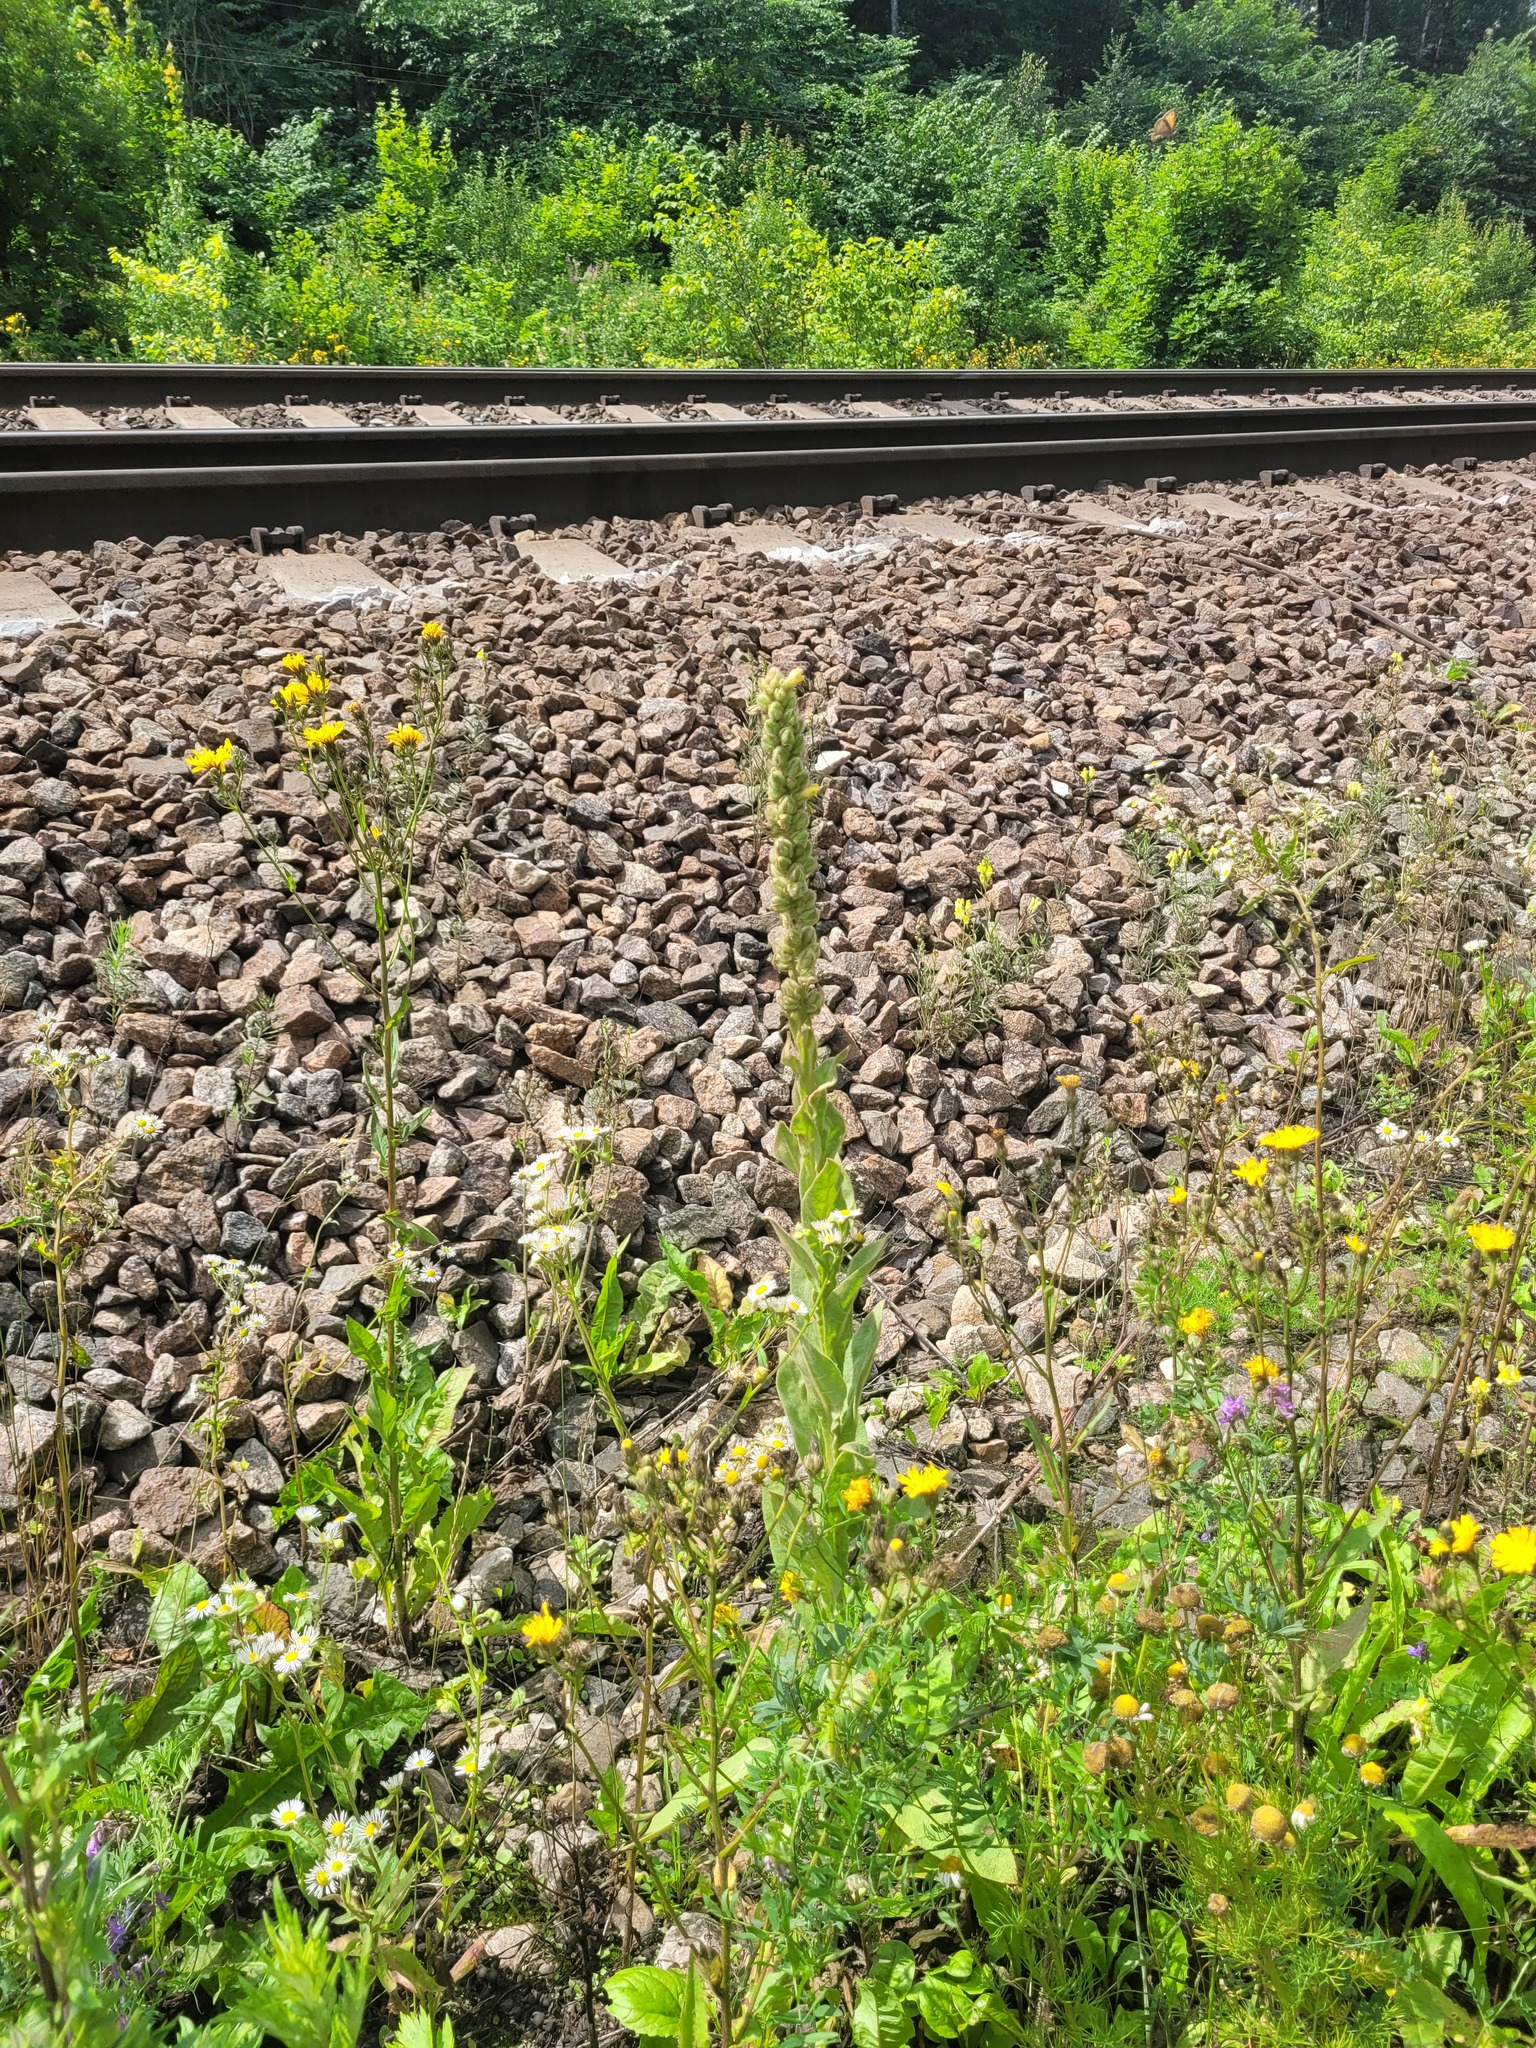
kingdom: Plantae
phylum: Tracheophyta
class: Magnoliopsida
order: Lamiales
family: Scrophulariaceae
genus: Verbascum
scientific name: Verbascum thapsus
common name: Common mullein
